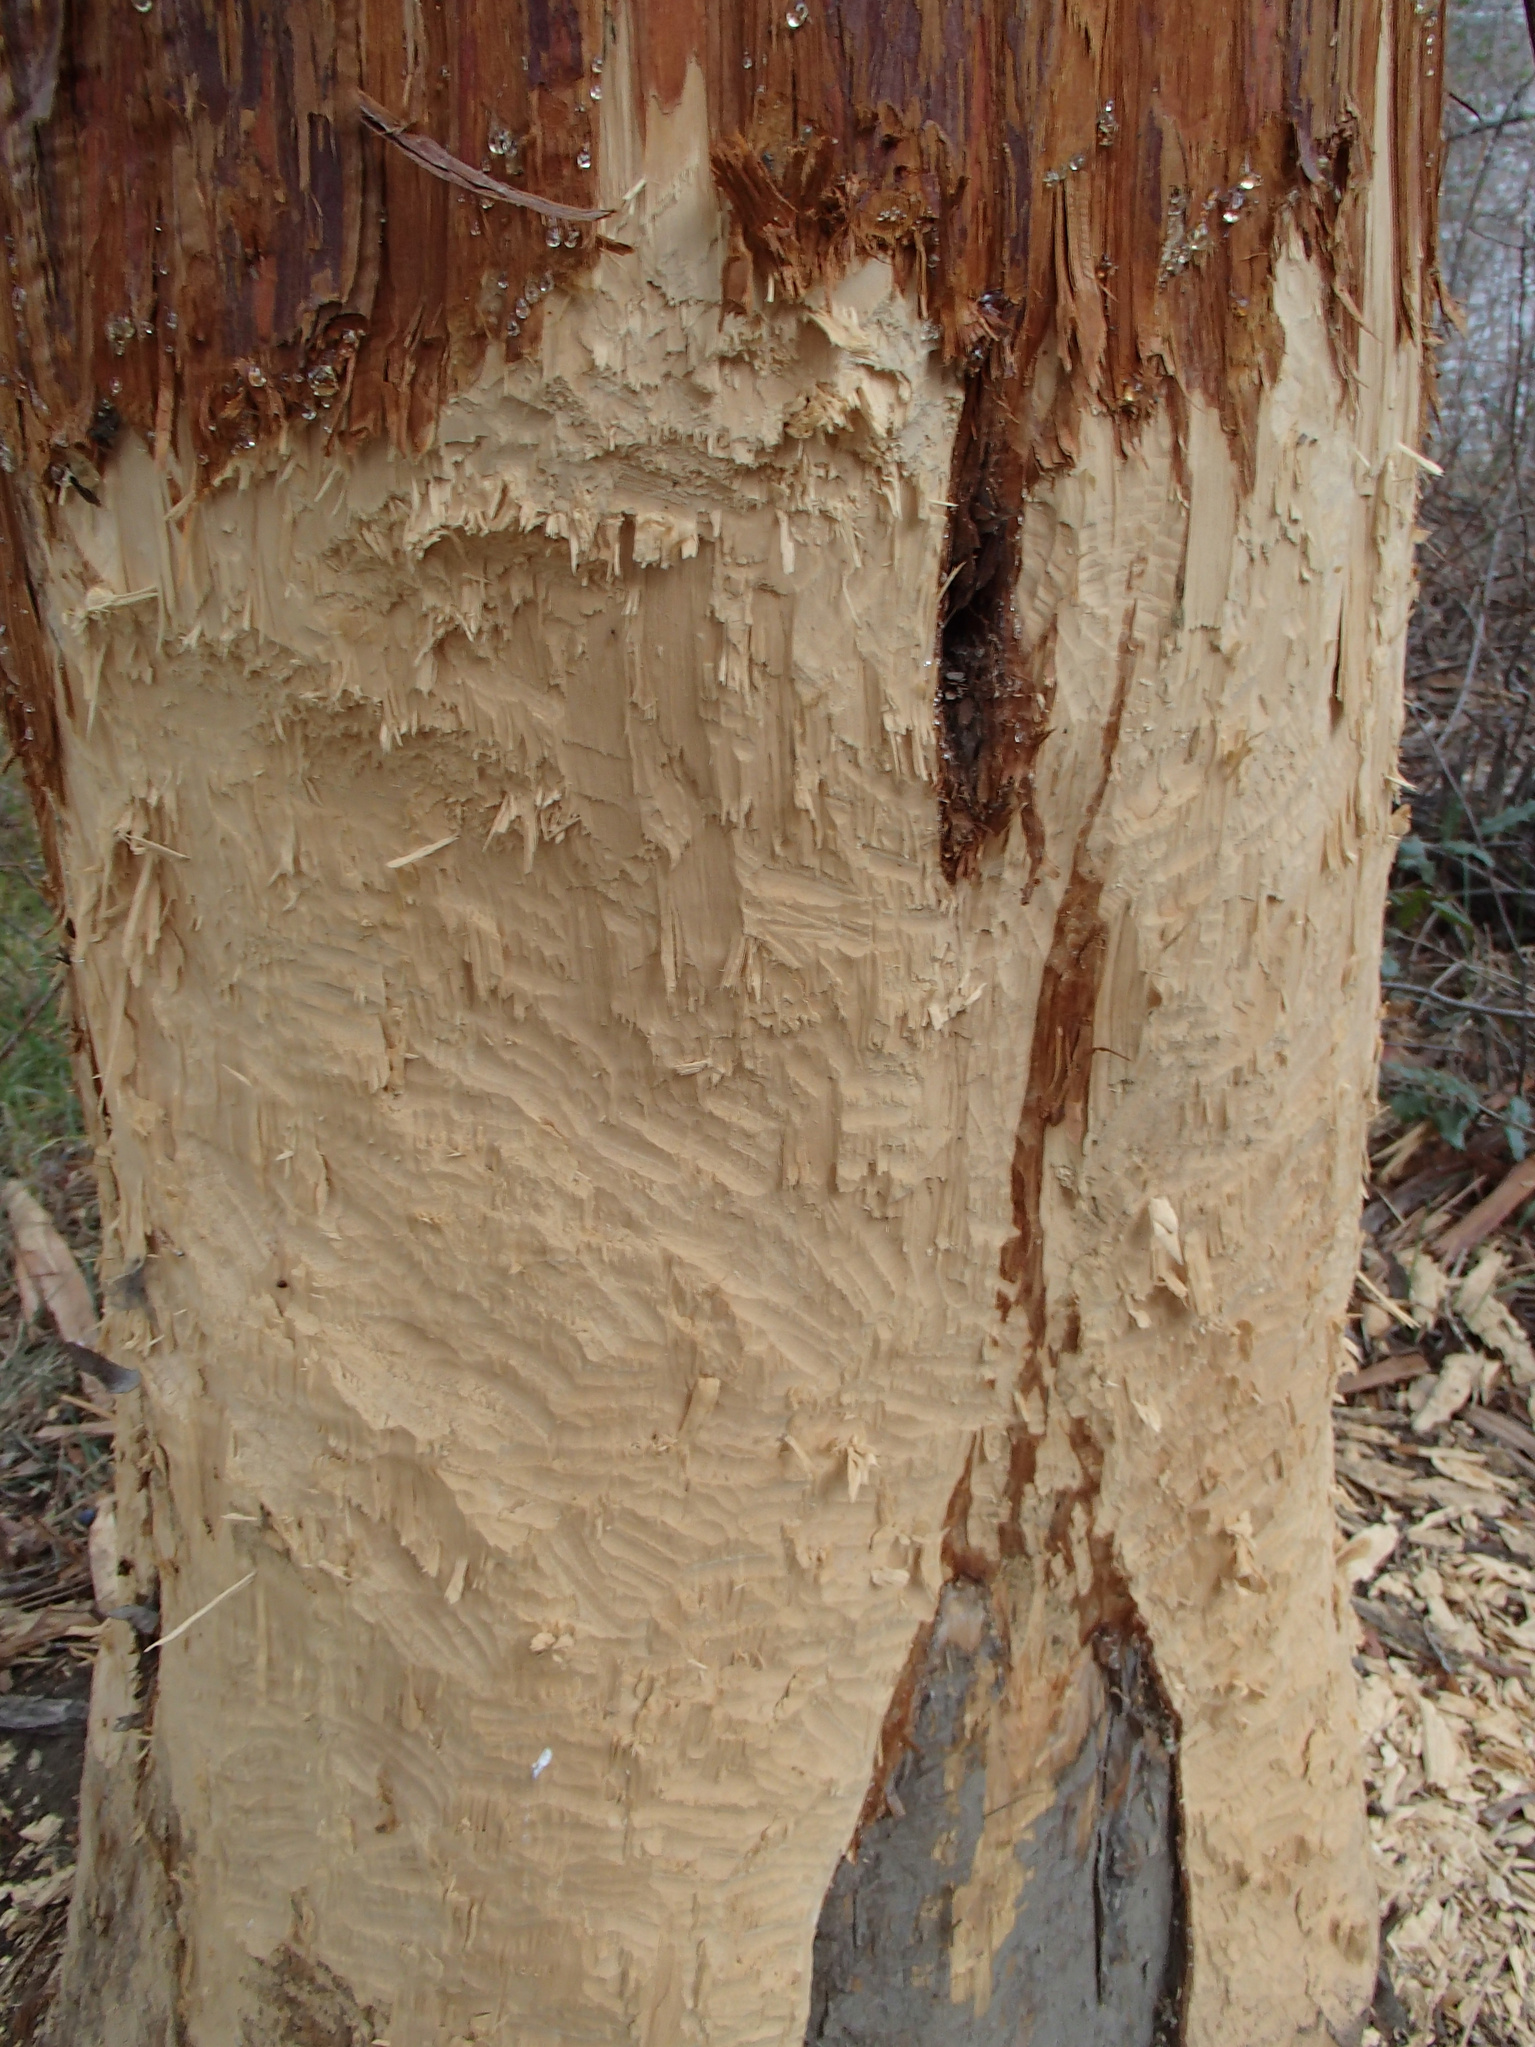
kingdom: Animalia
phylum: Chordata
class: Mammalia
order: Rodentia
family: Castoridae
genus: Castor
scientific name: Castor canadensis
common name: American beaver
